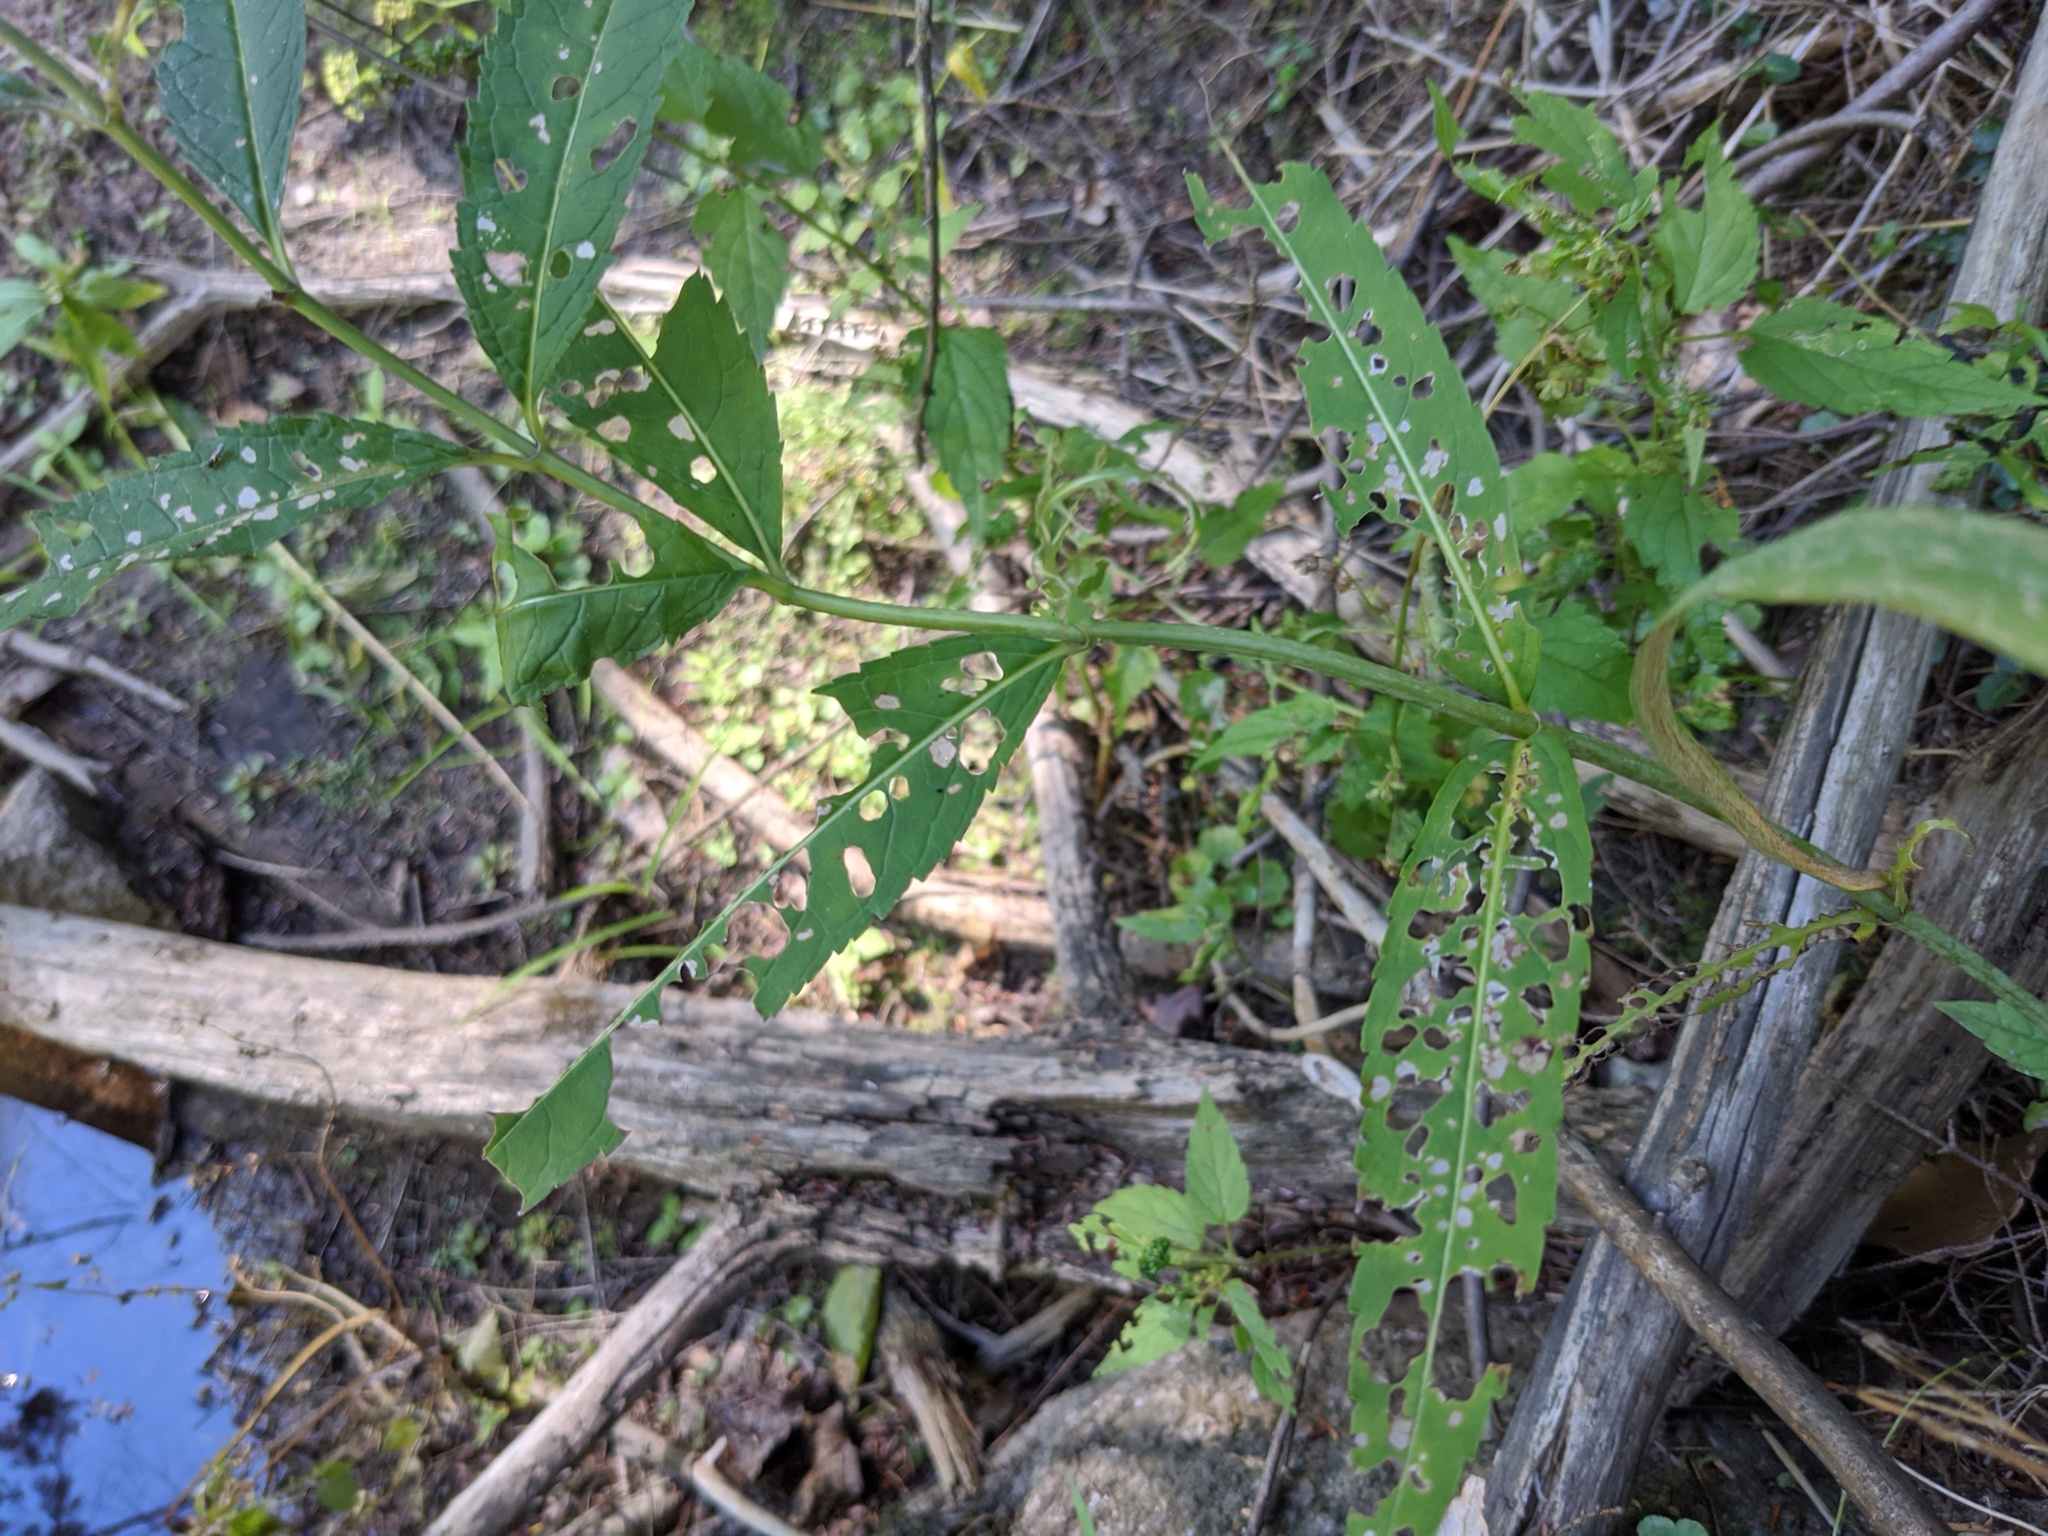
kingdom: Plantae
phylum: Tracheophyta
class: Magnoliopsida
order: Lamiales
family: Plantaginaceae
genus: Chelone
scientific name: Chelone glabra
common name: Snakehead
